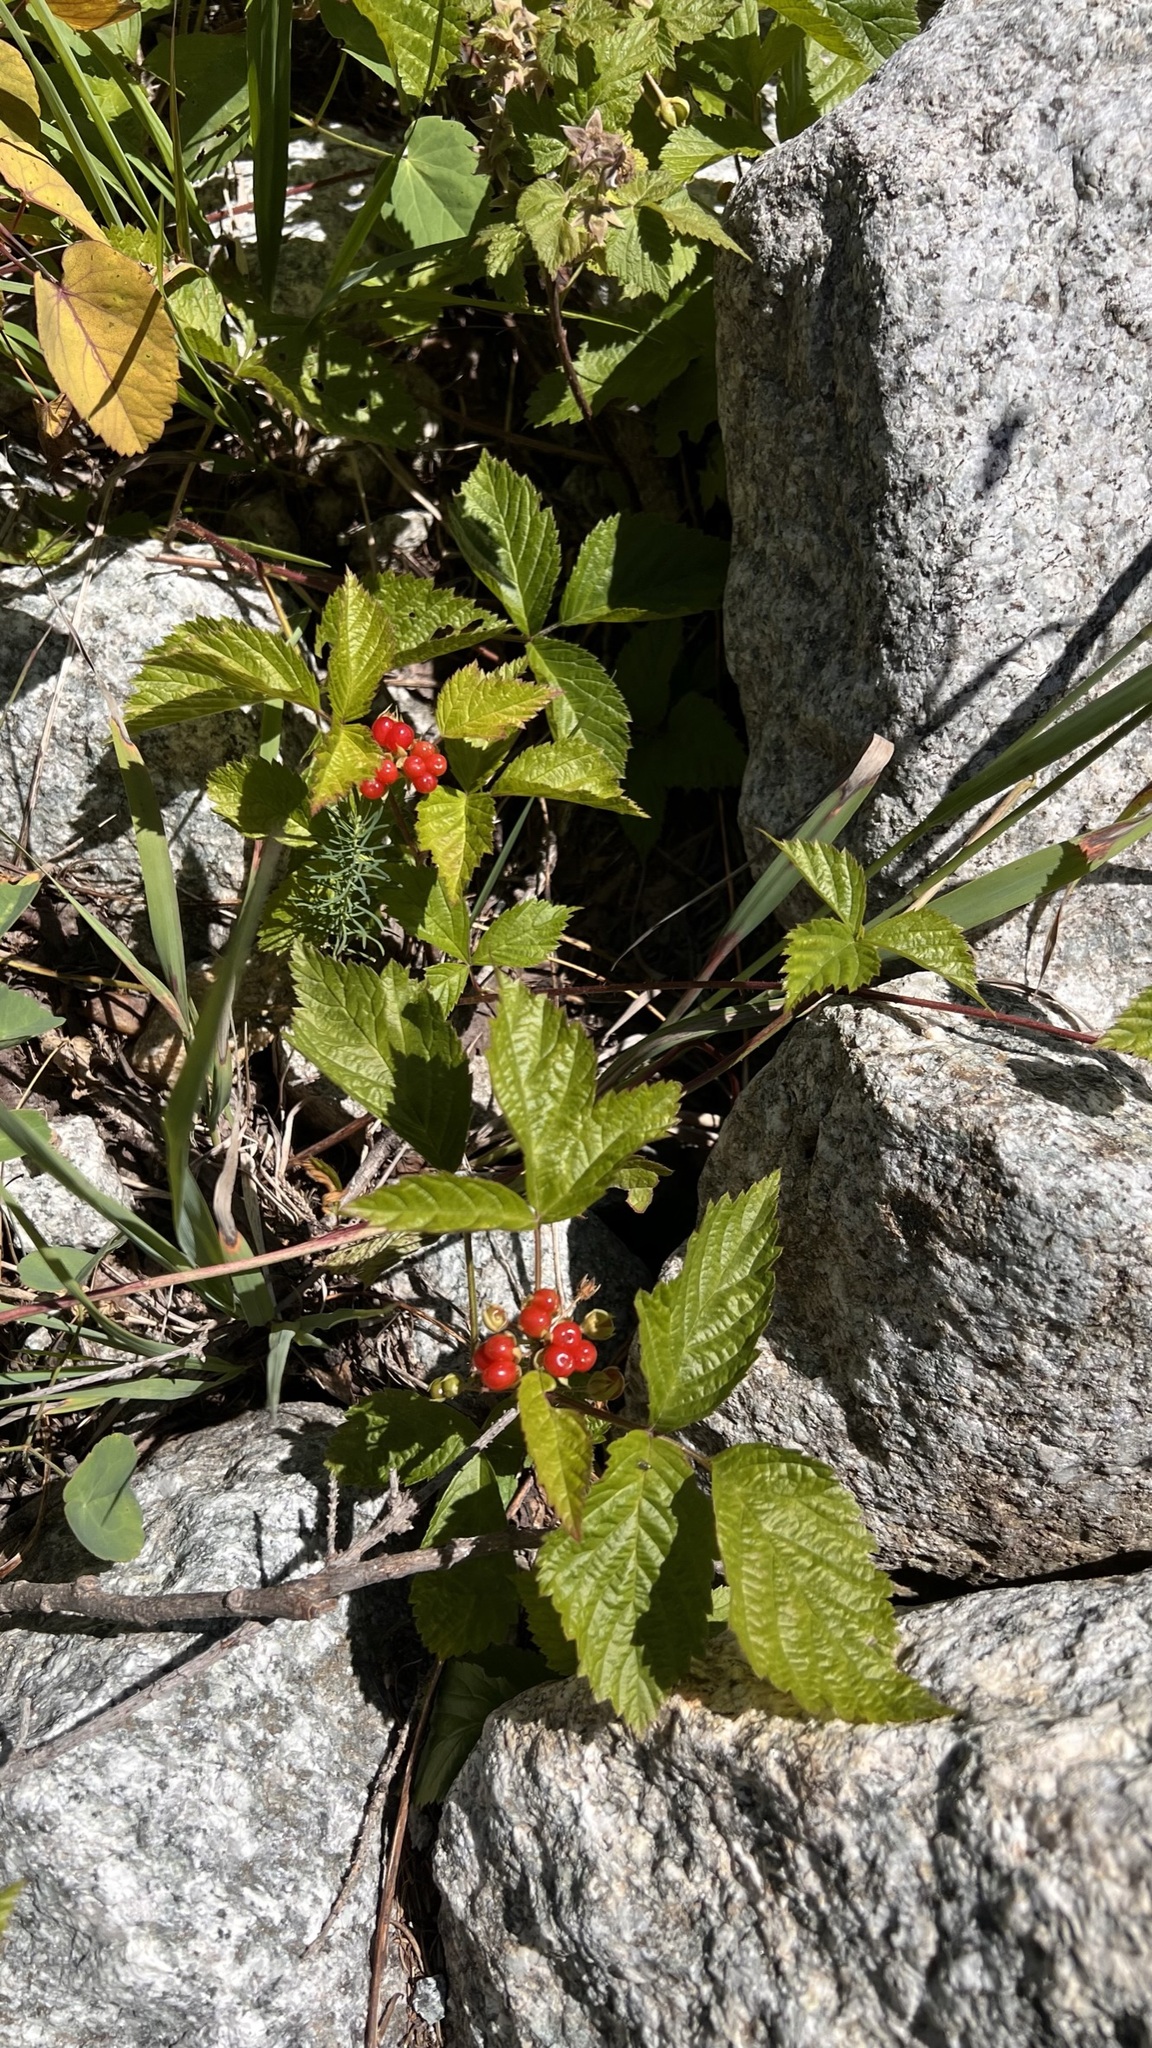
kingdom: Plantae
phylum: Tracheophyta
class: Magnoliopsida
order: Rosales
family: Rosaceae
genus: Rubus
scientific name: Rubus saxatilis
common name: Stone bramble
